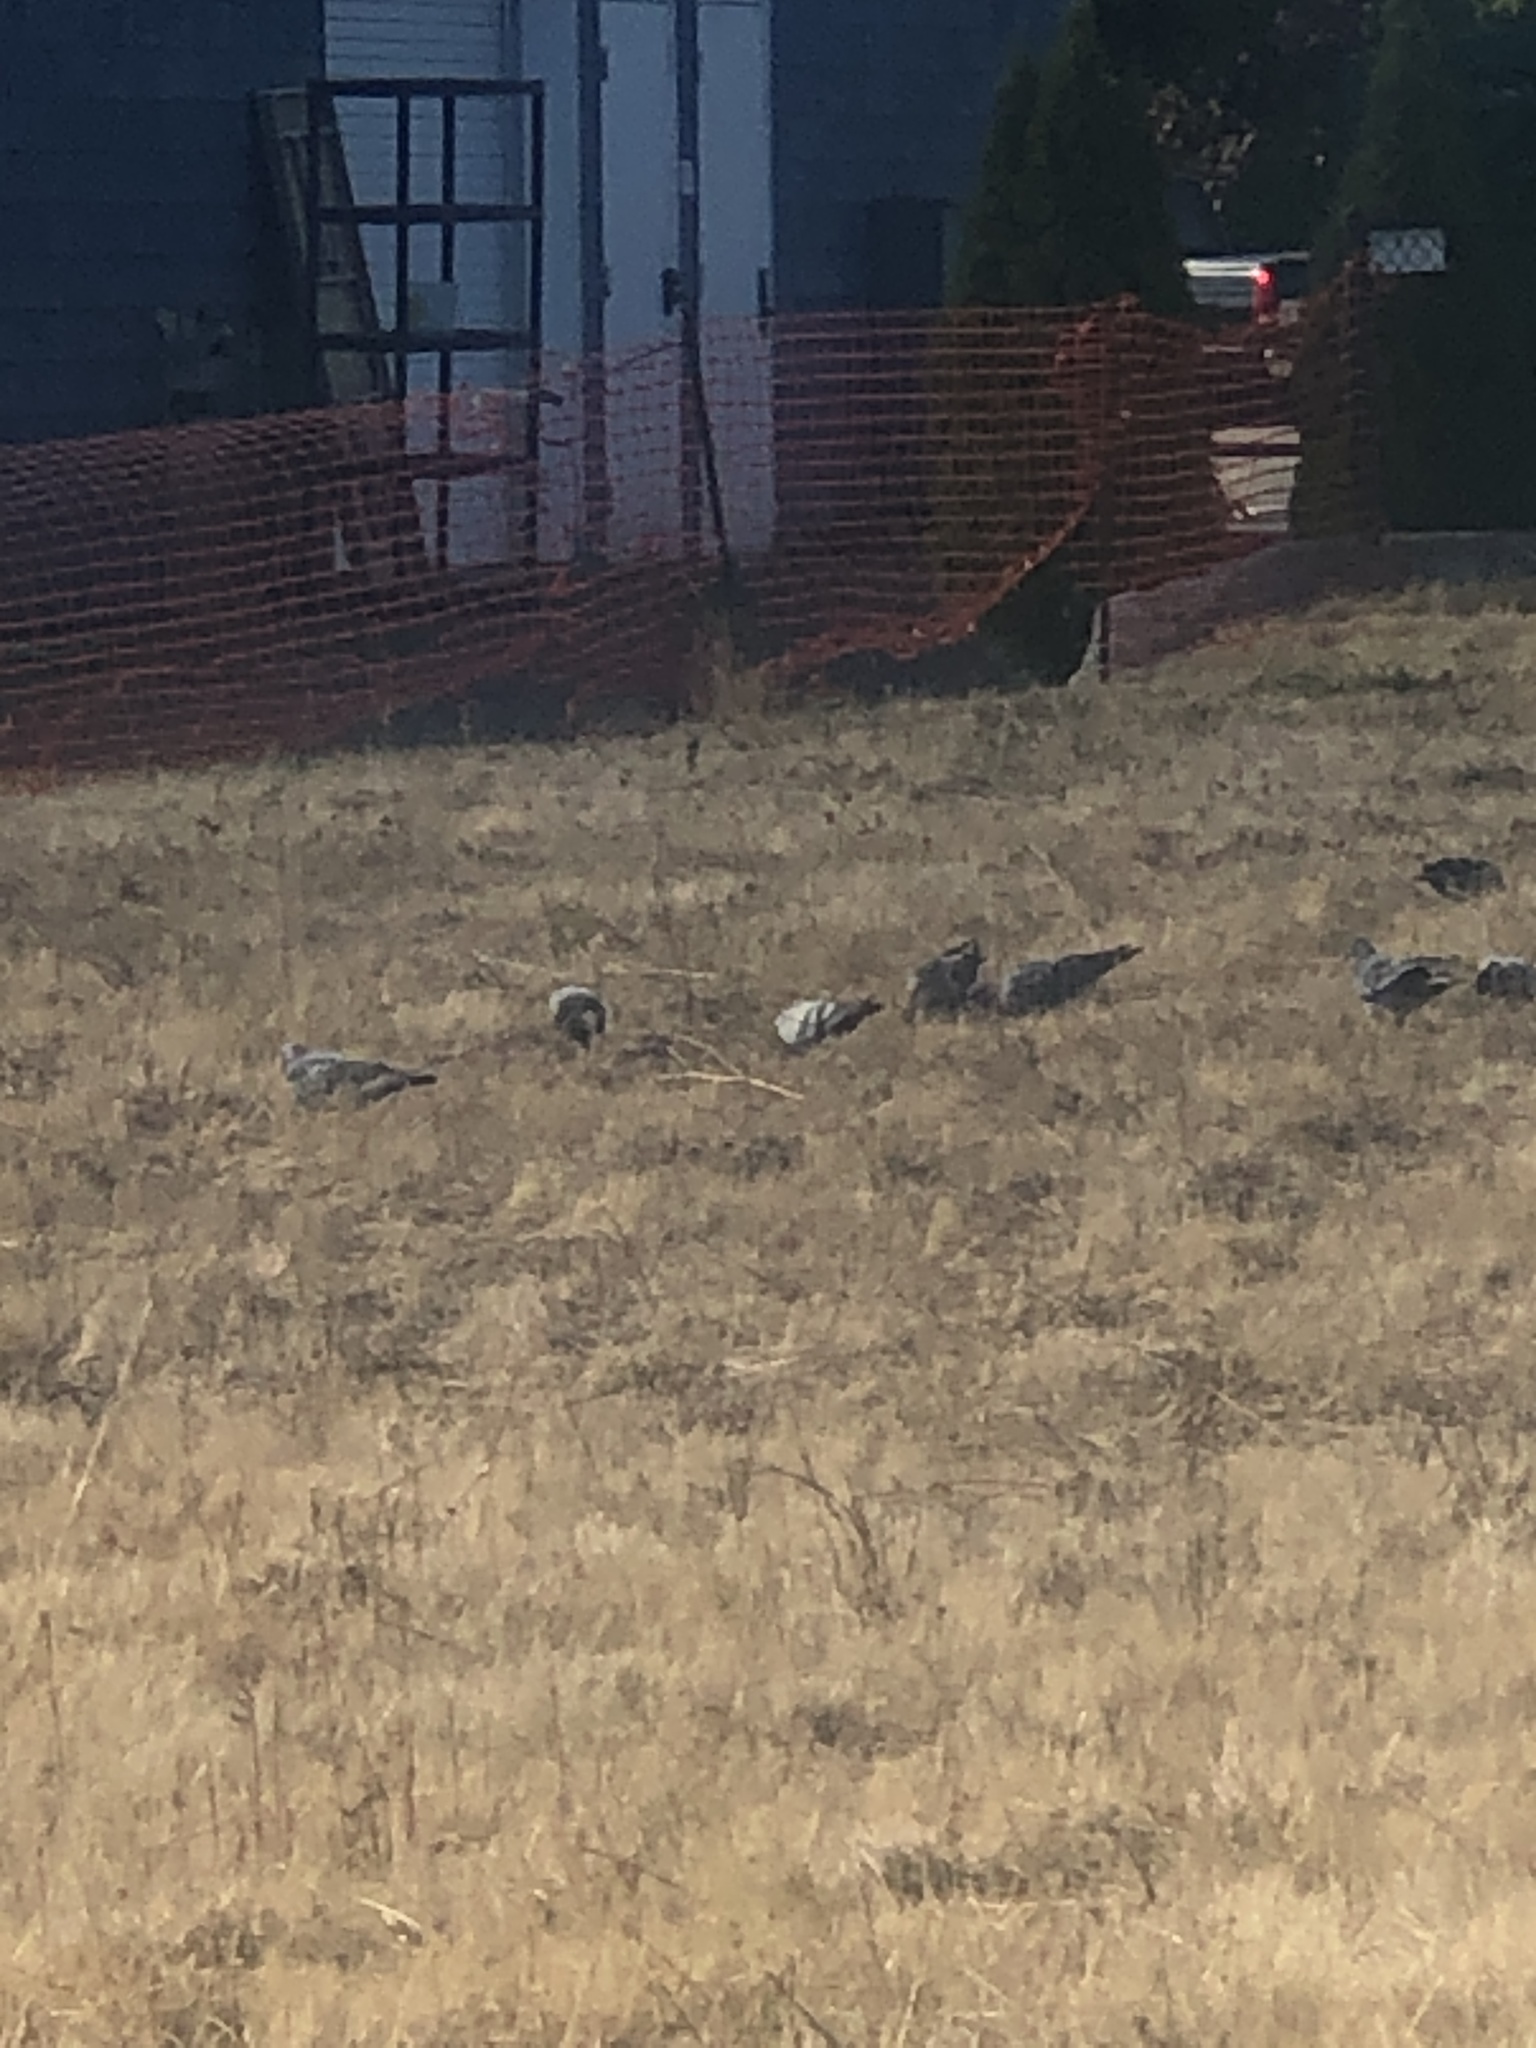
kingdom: Animalia
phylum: Chordata
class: Aves
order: Columbiformes
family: Columbidae
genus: Columba
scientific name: Columba livia
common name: Rock pigeon
